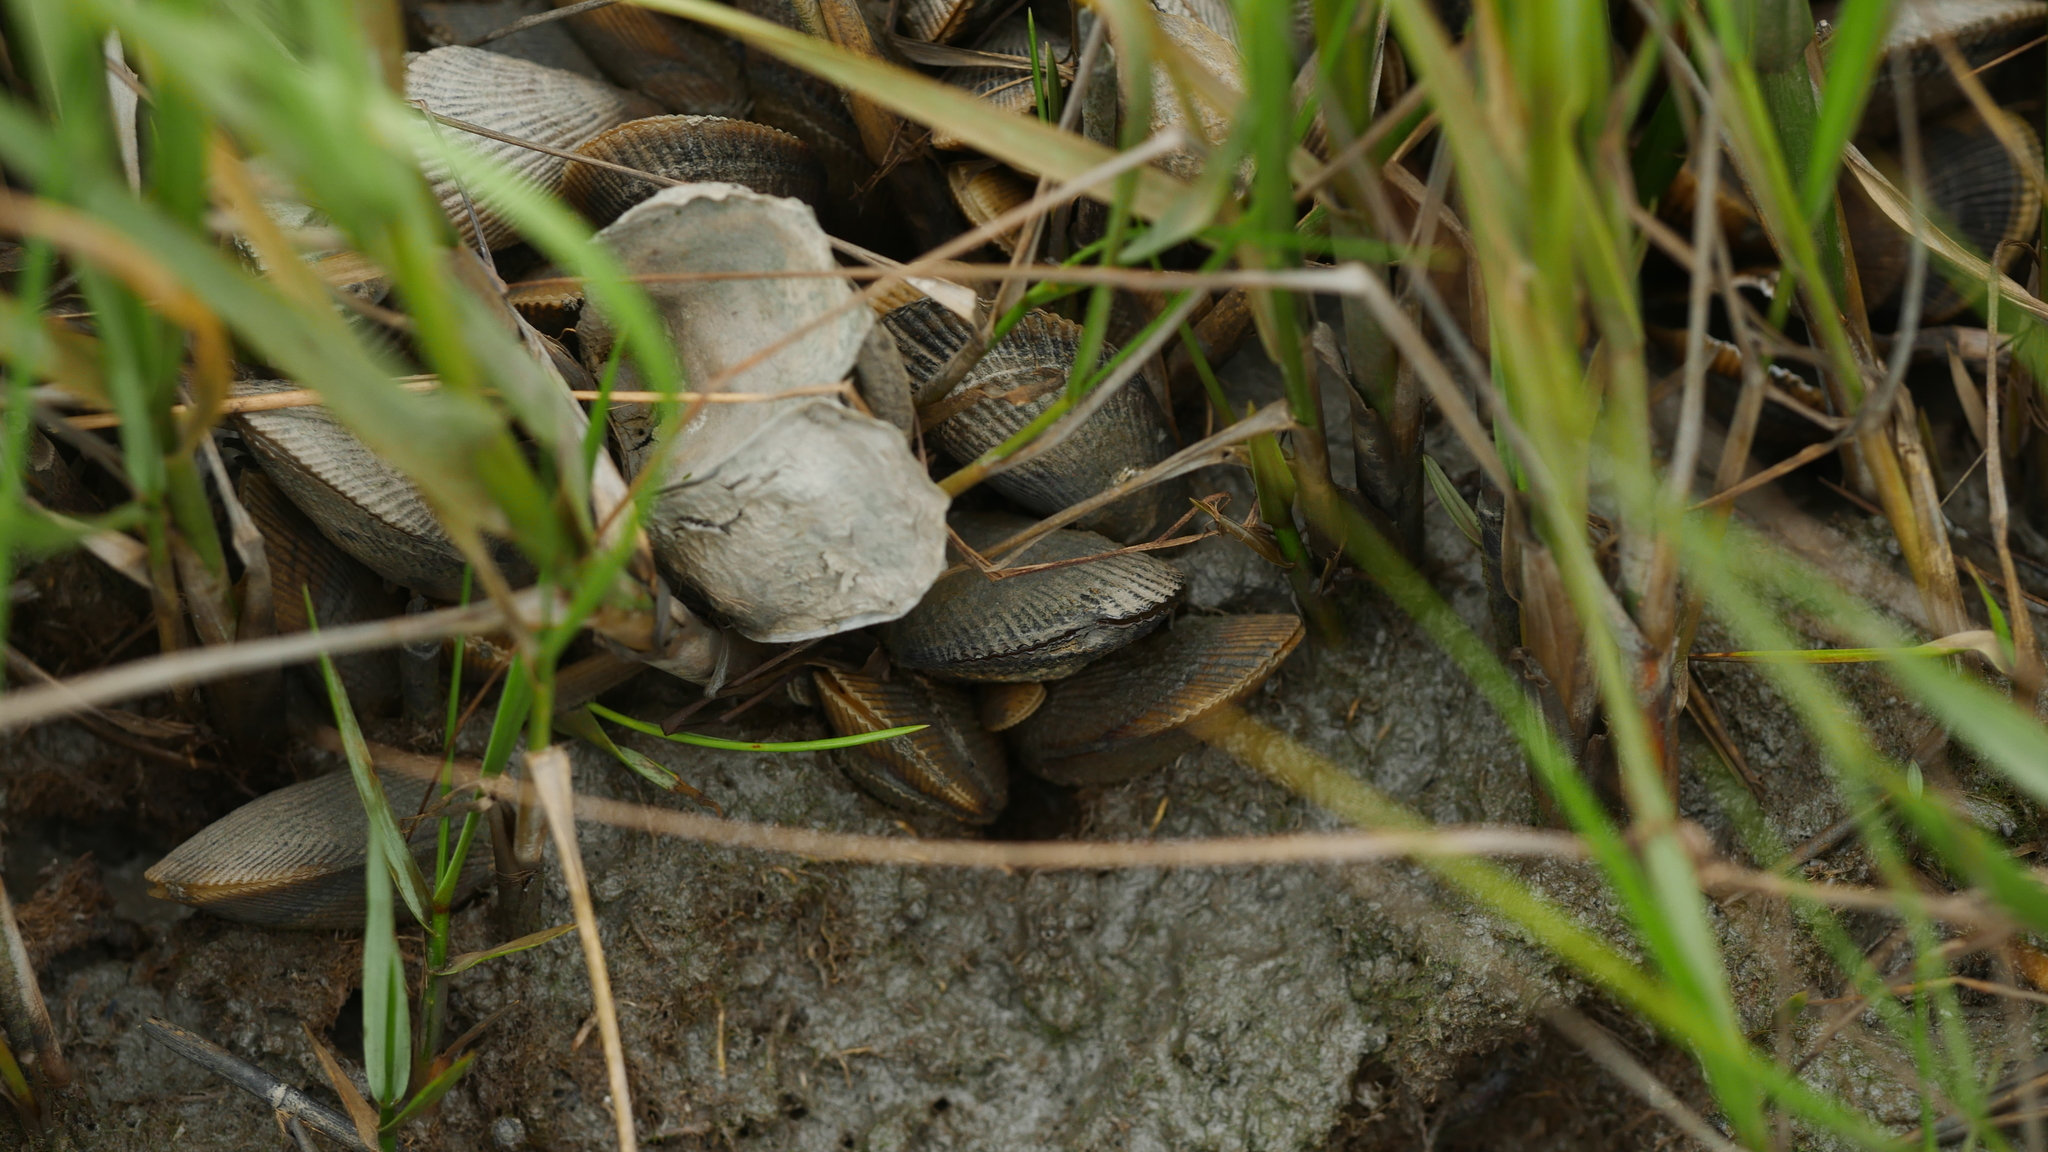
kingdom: Animalia
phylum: Mollusca
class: Bivalvia
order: Mytilida
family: Mytilidae
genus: Geukensia
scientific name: Geukensia demissa
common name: Ribbed mussel
